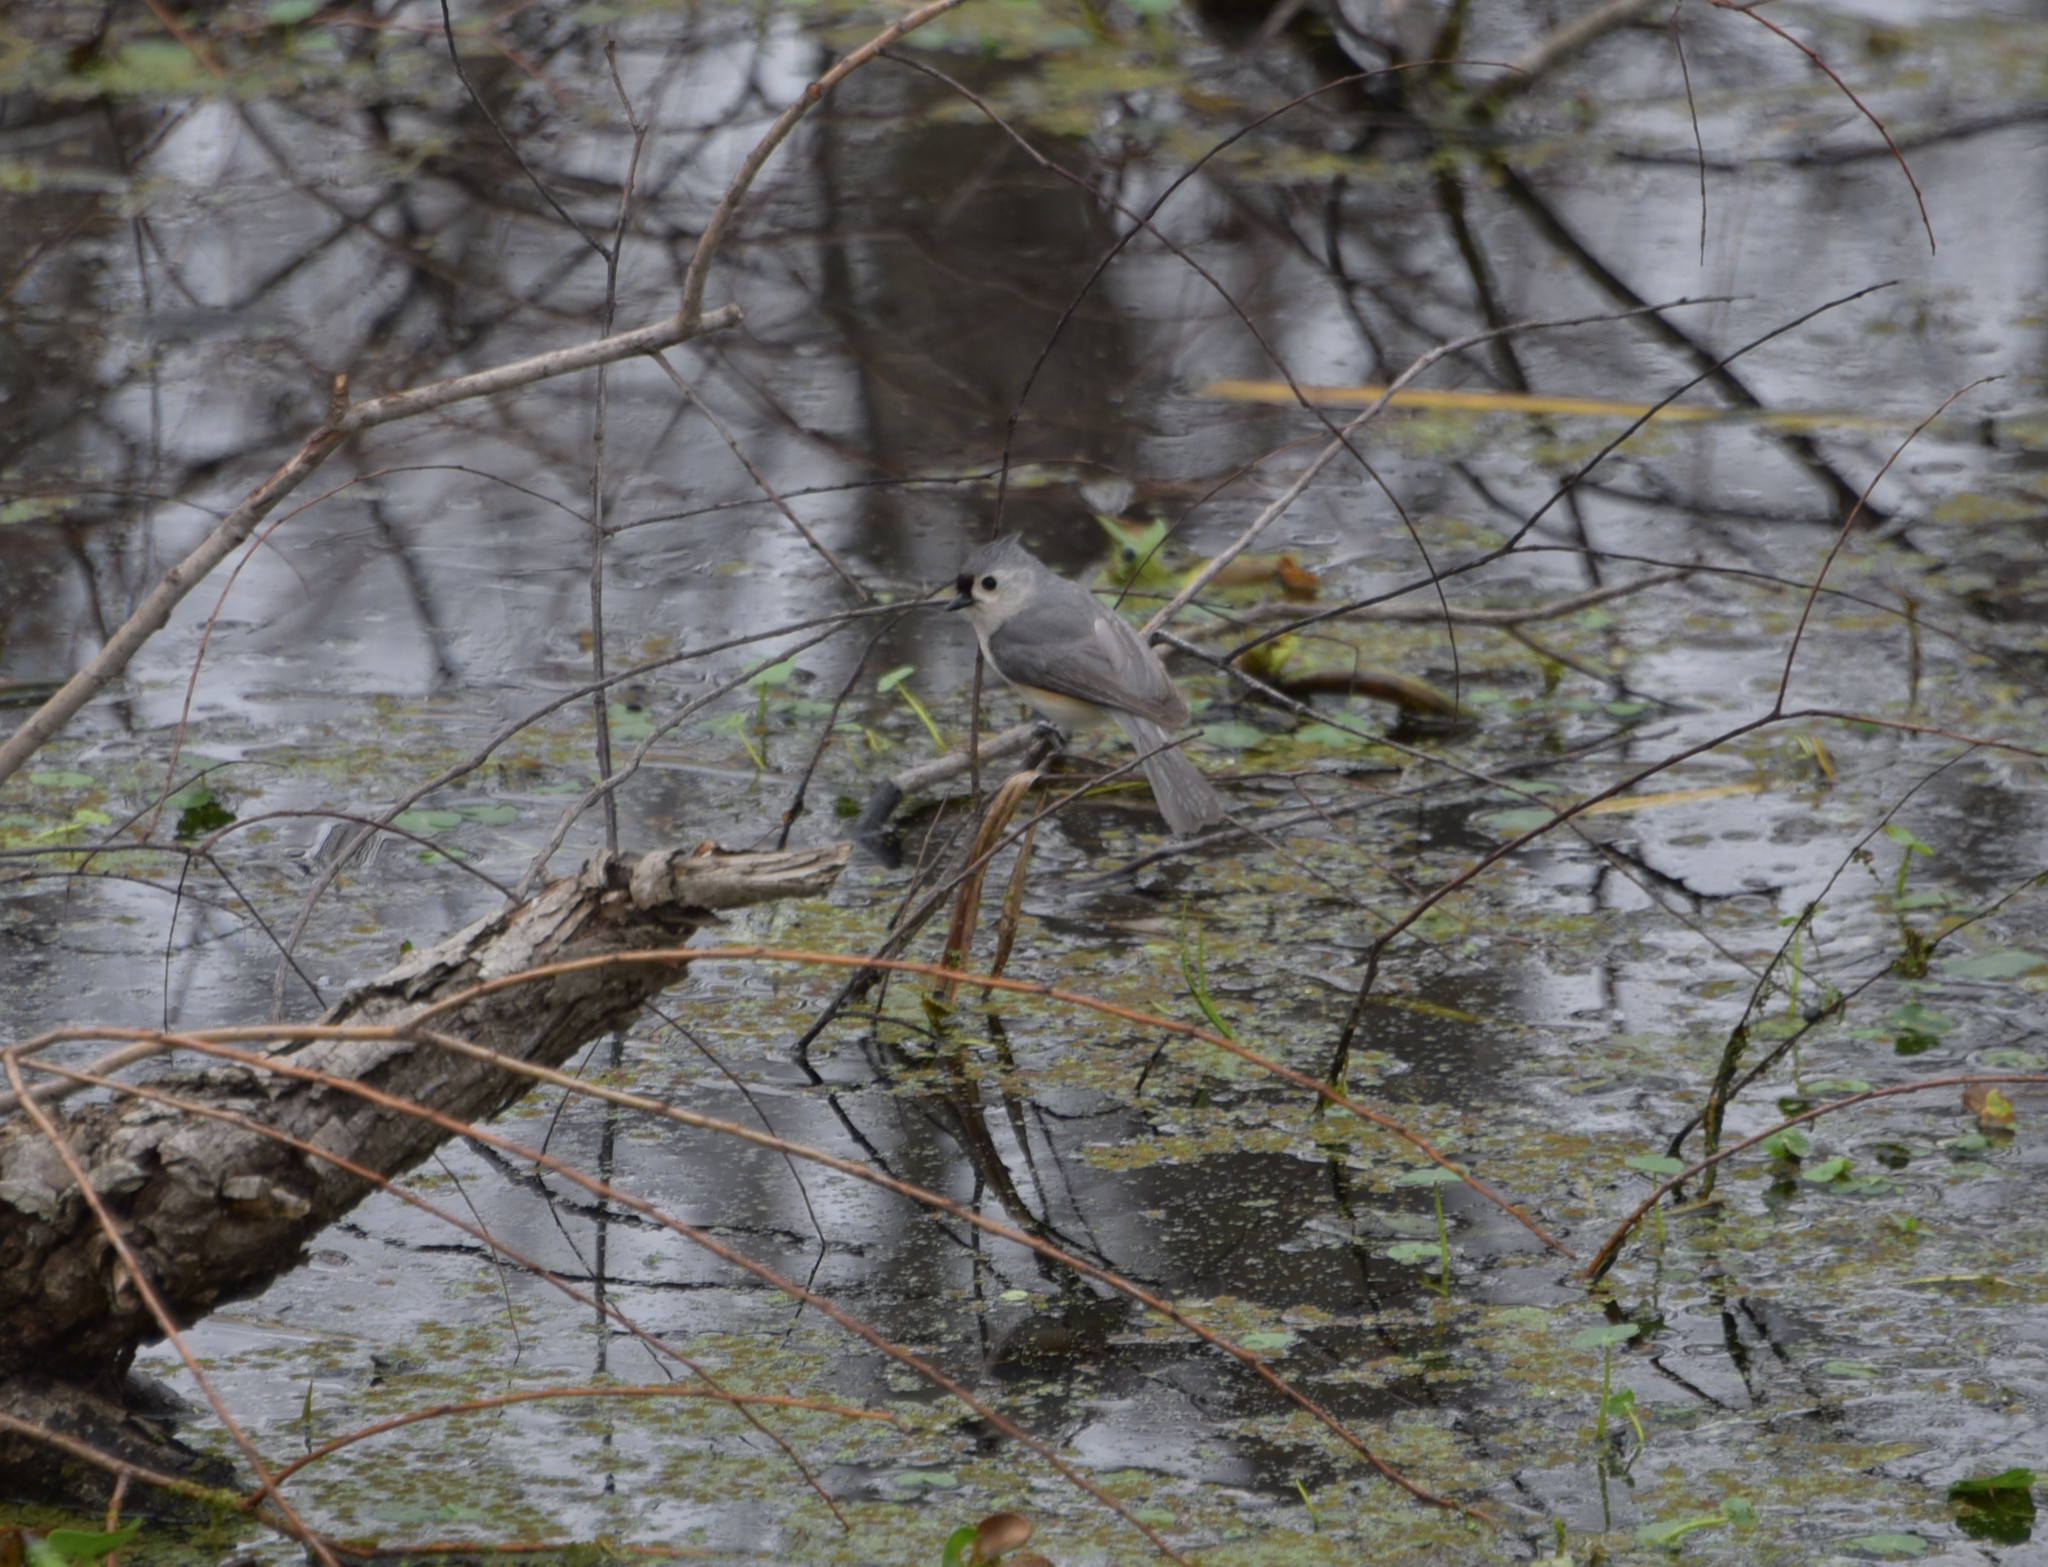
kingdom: Animalia
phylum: Chordata
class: Aves
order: Passeriformes
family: Paridae
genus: Baeolophus
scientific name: Baeolophus bicolor
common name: Tufted titmouse
